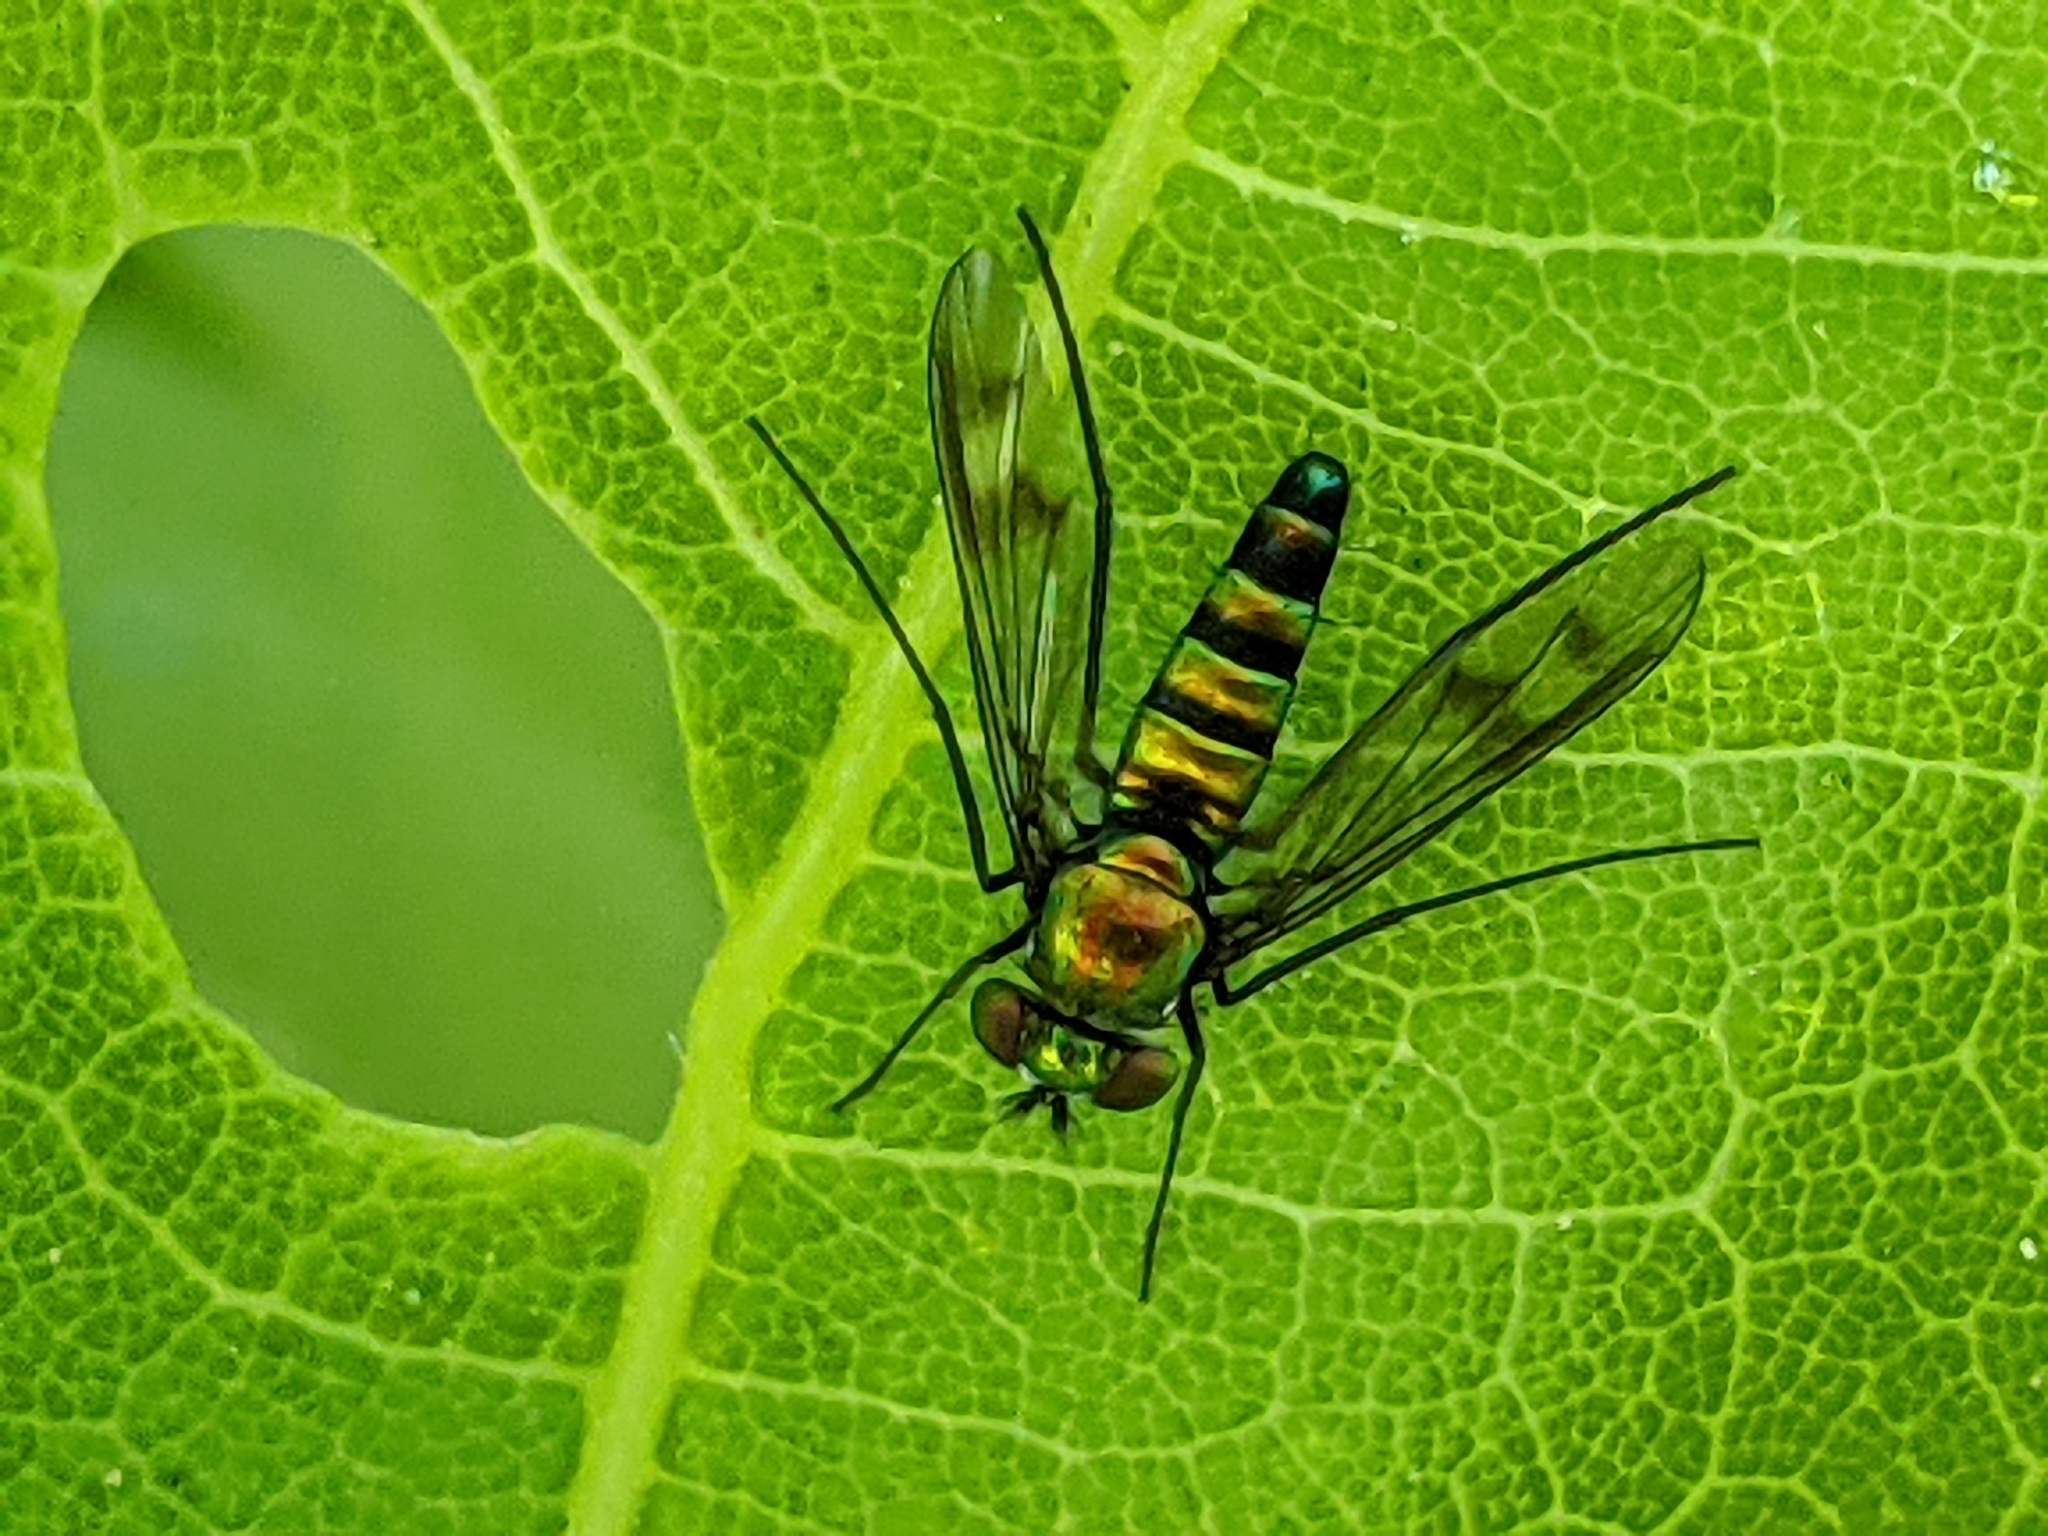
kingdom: Animalia
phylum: Arthropoda
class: Insecta
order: Diptera
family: Dolichopodidae
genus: Condylostylus
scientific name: Condylostylus occidentalis
